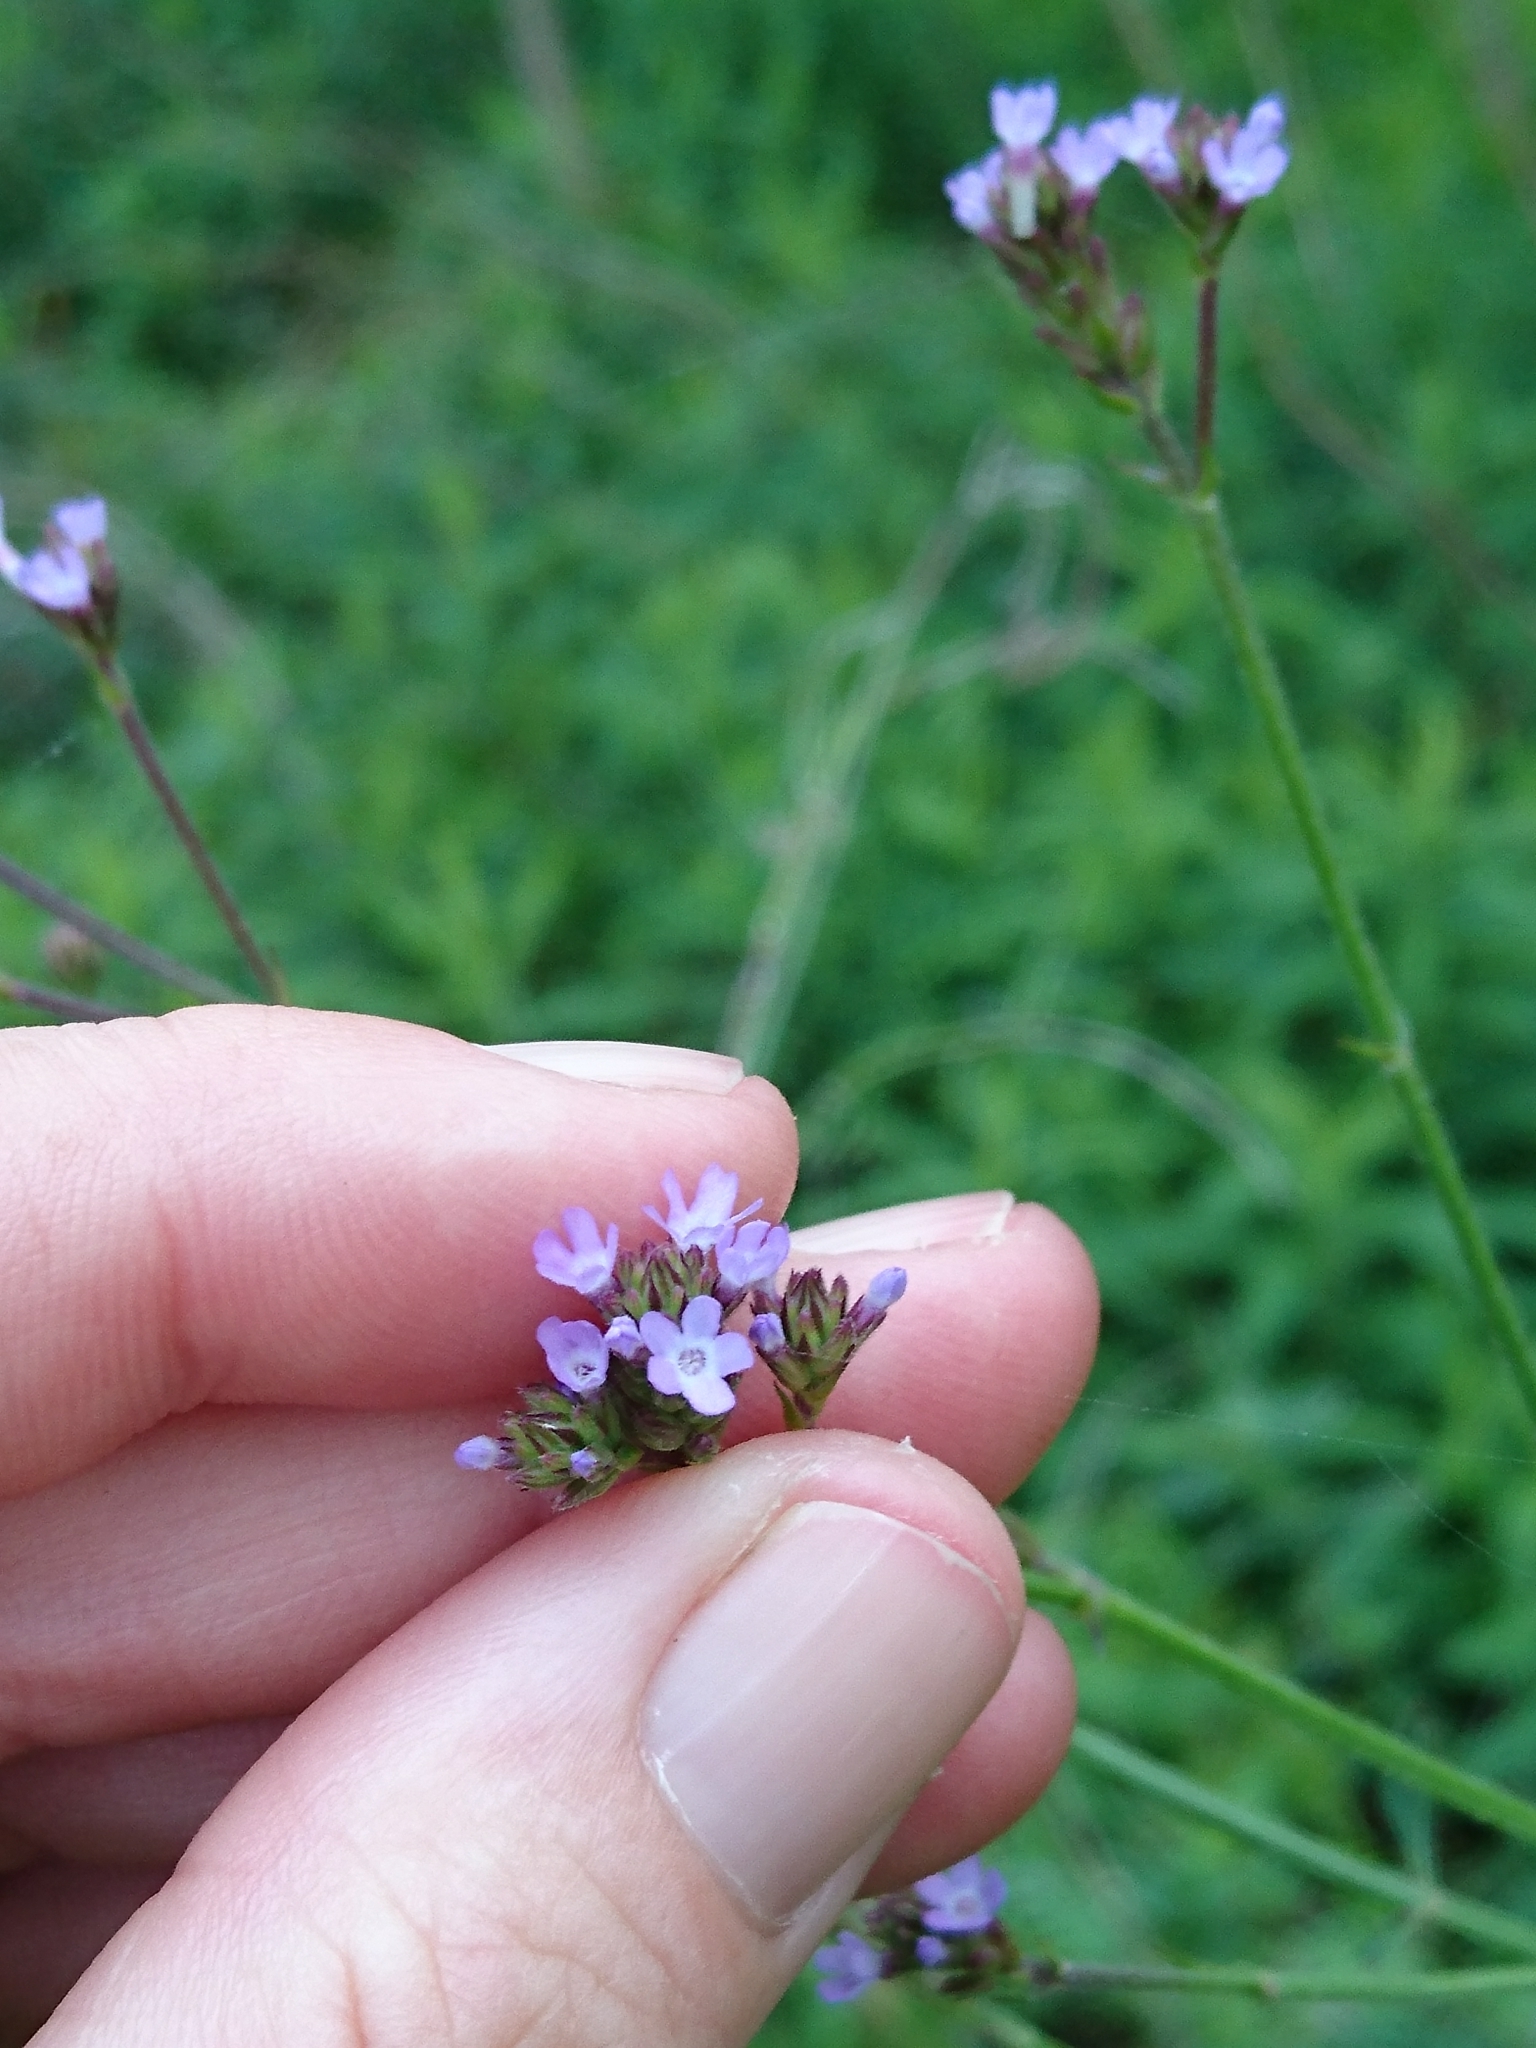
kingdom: Plantae
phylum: Tracheophyta
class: Magnoliopsida
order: Lamiales
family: Verbenaceae
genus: Verbena
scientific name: Verbena brasiliensis
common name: Brazilian vervain
